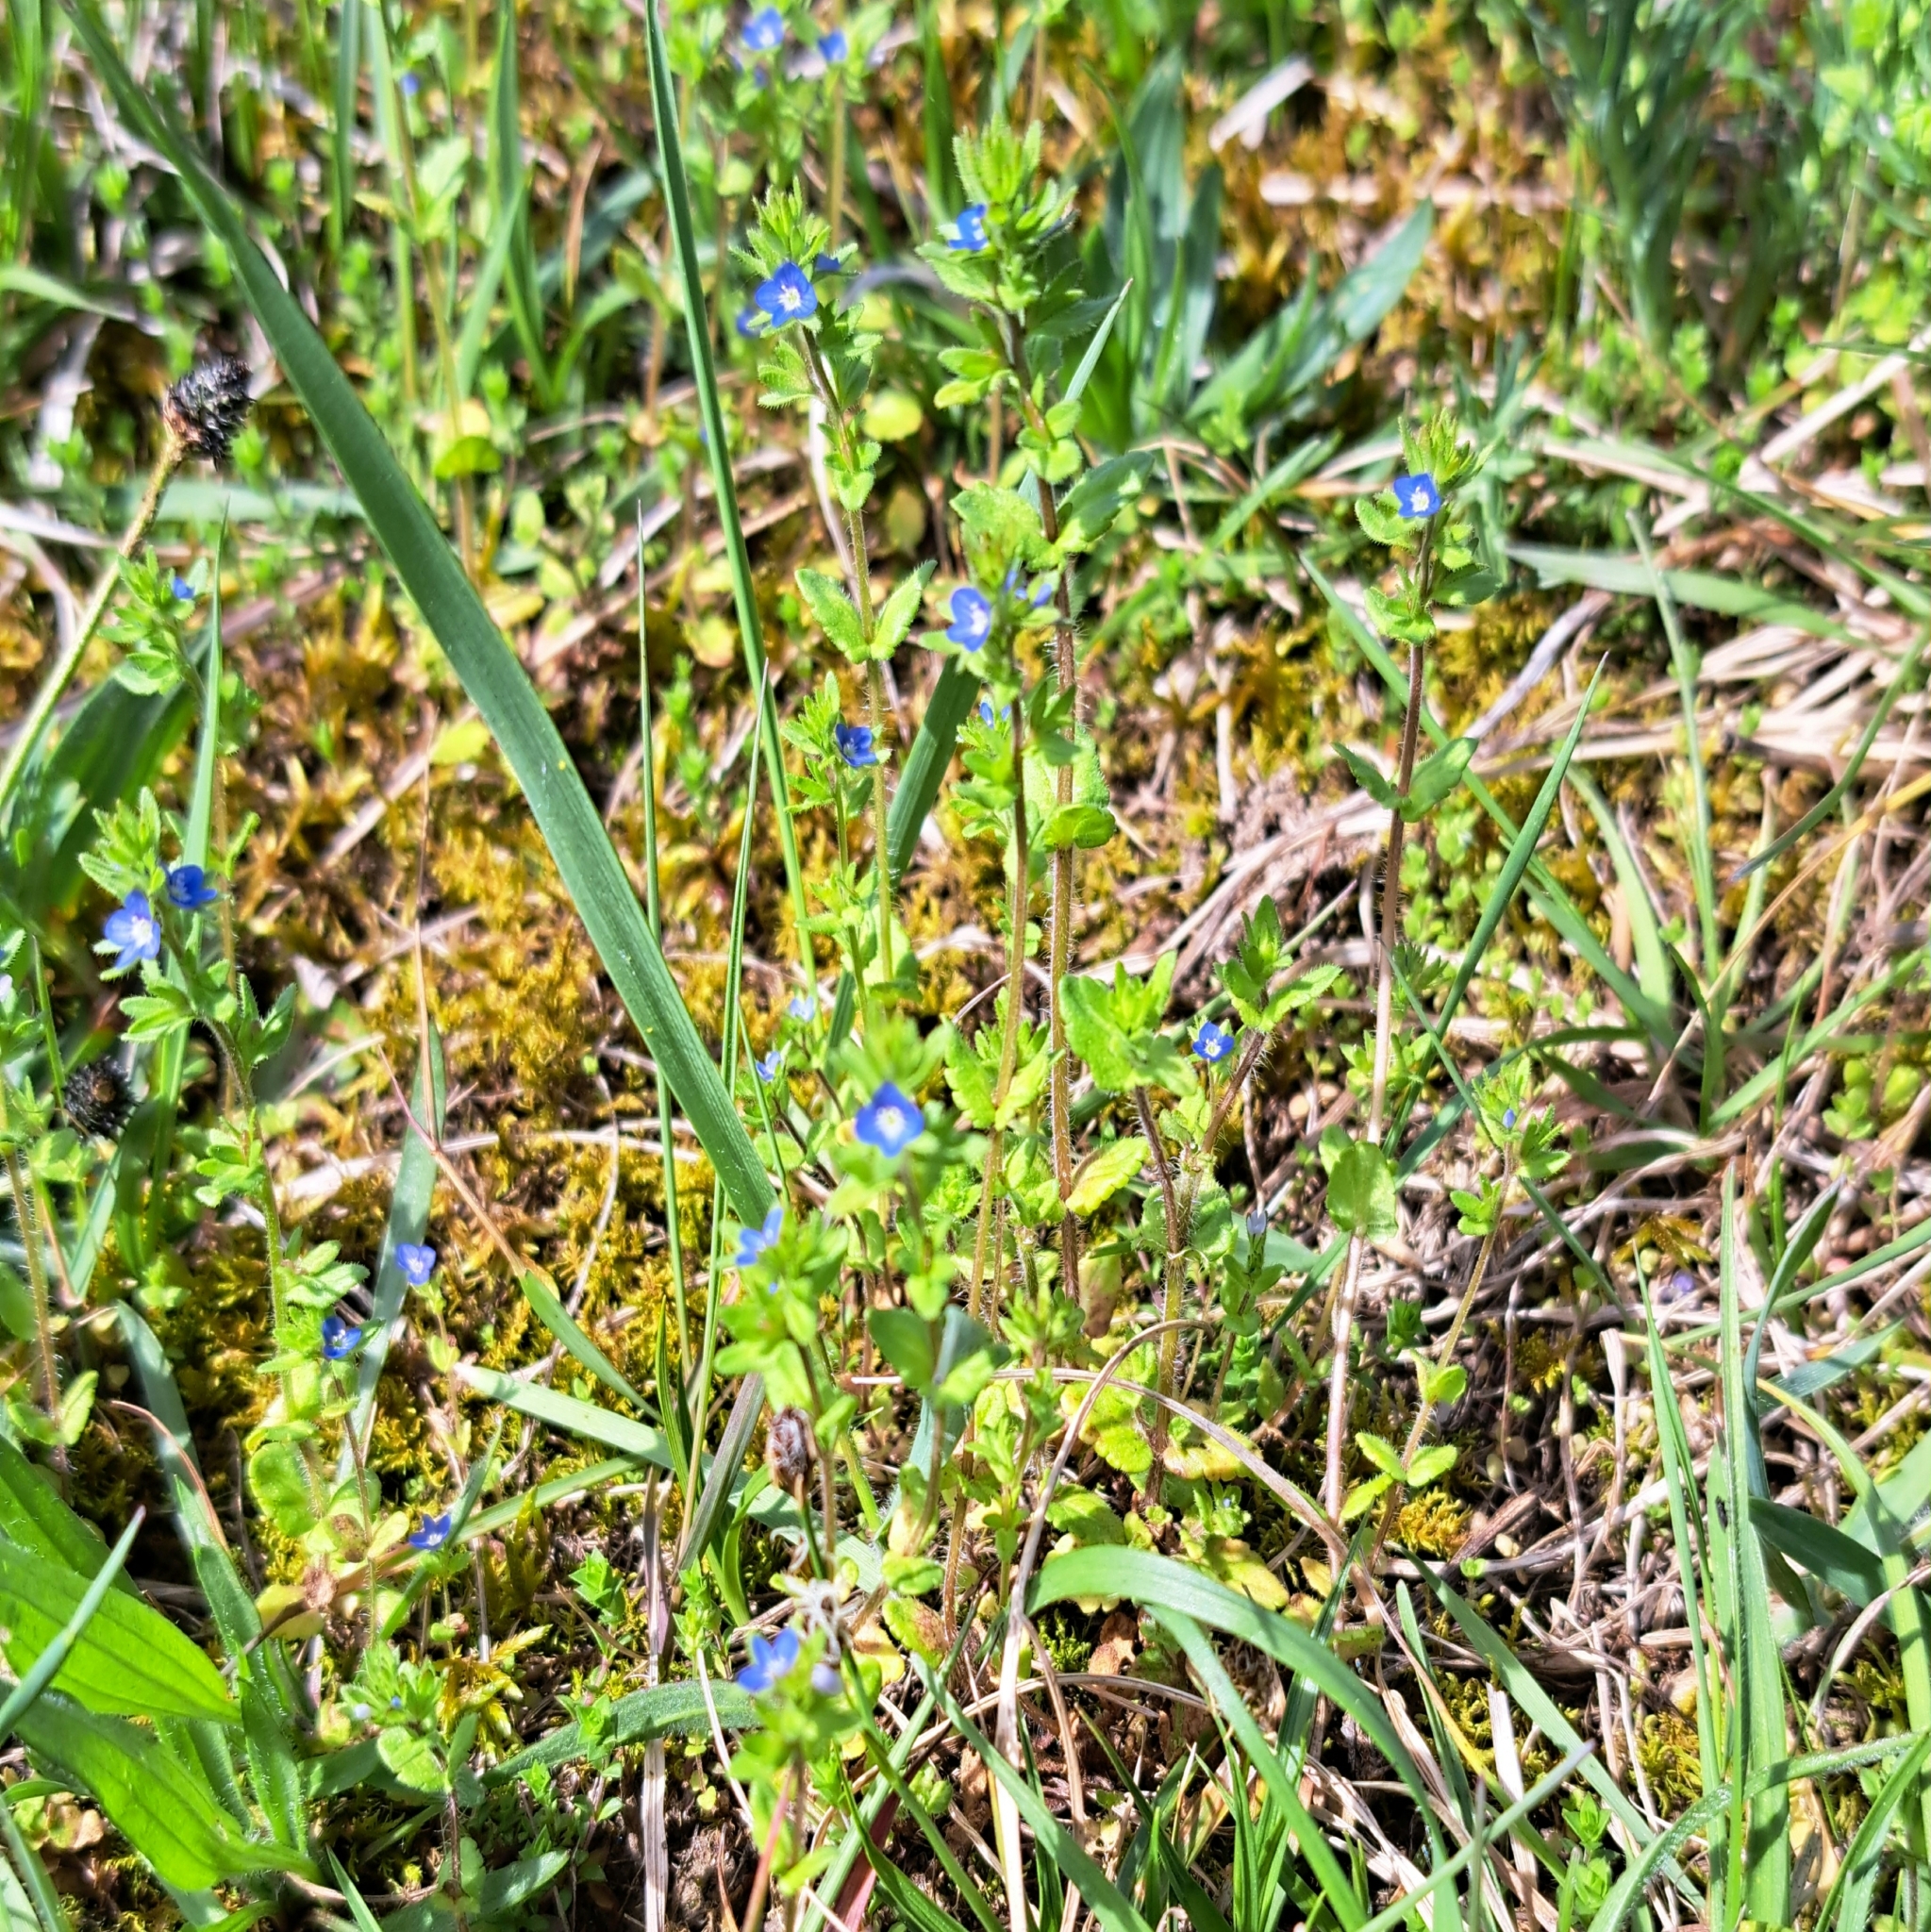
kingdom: Plantae
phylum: Tracheophyta
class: Magnoliopsida
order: Lamiales
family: Plantaginaceae
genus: Veronica
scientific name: Veronica arvensis
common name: Corn speedwell
